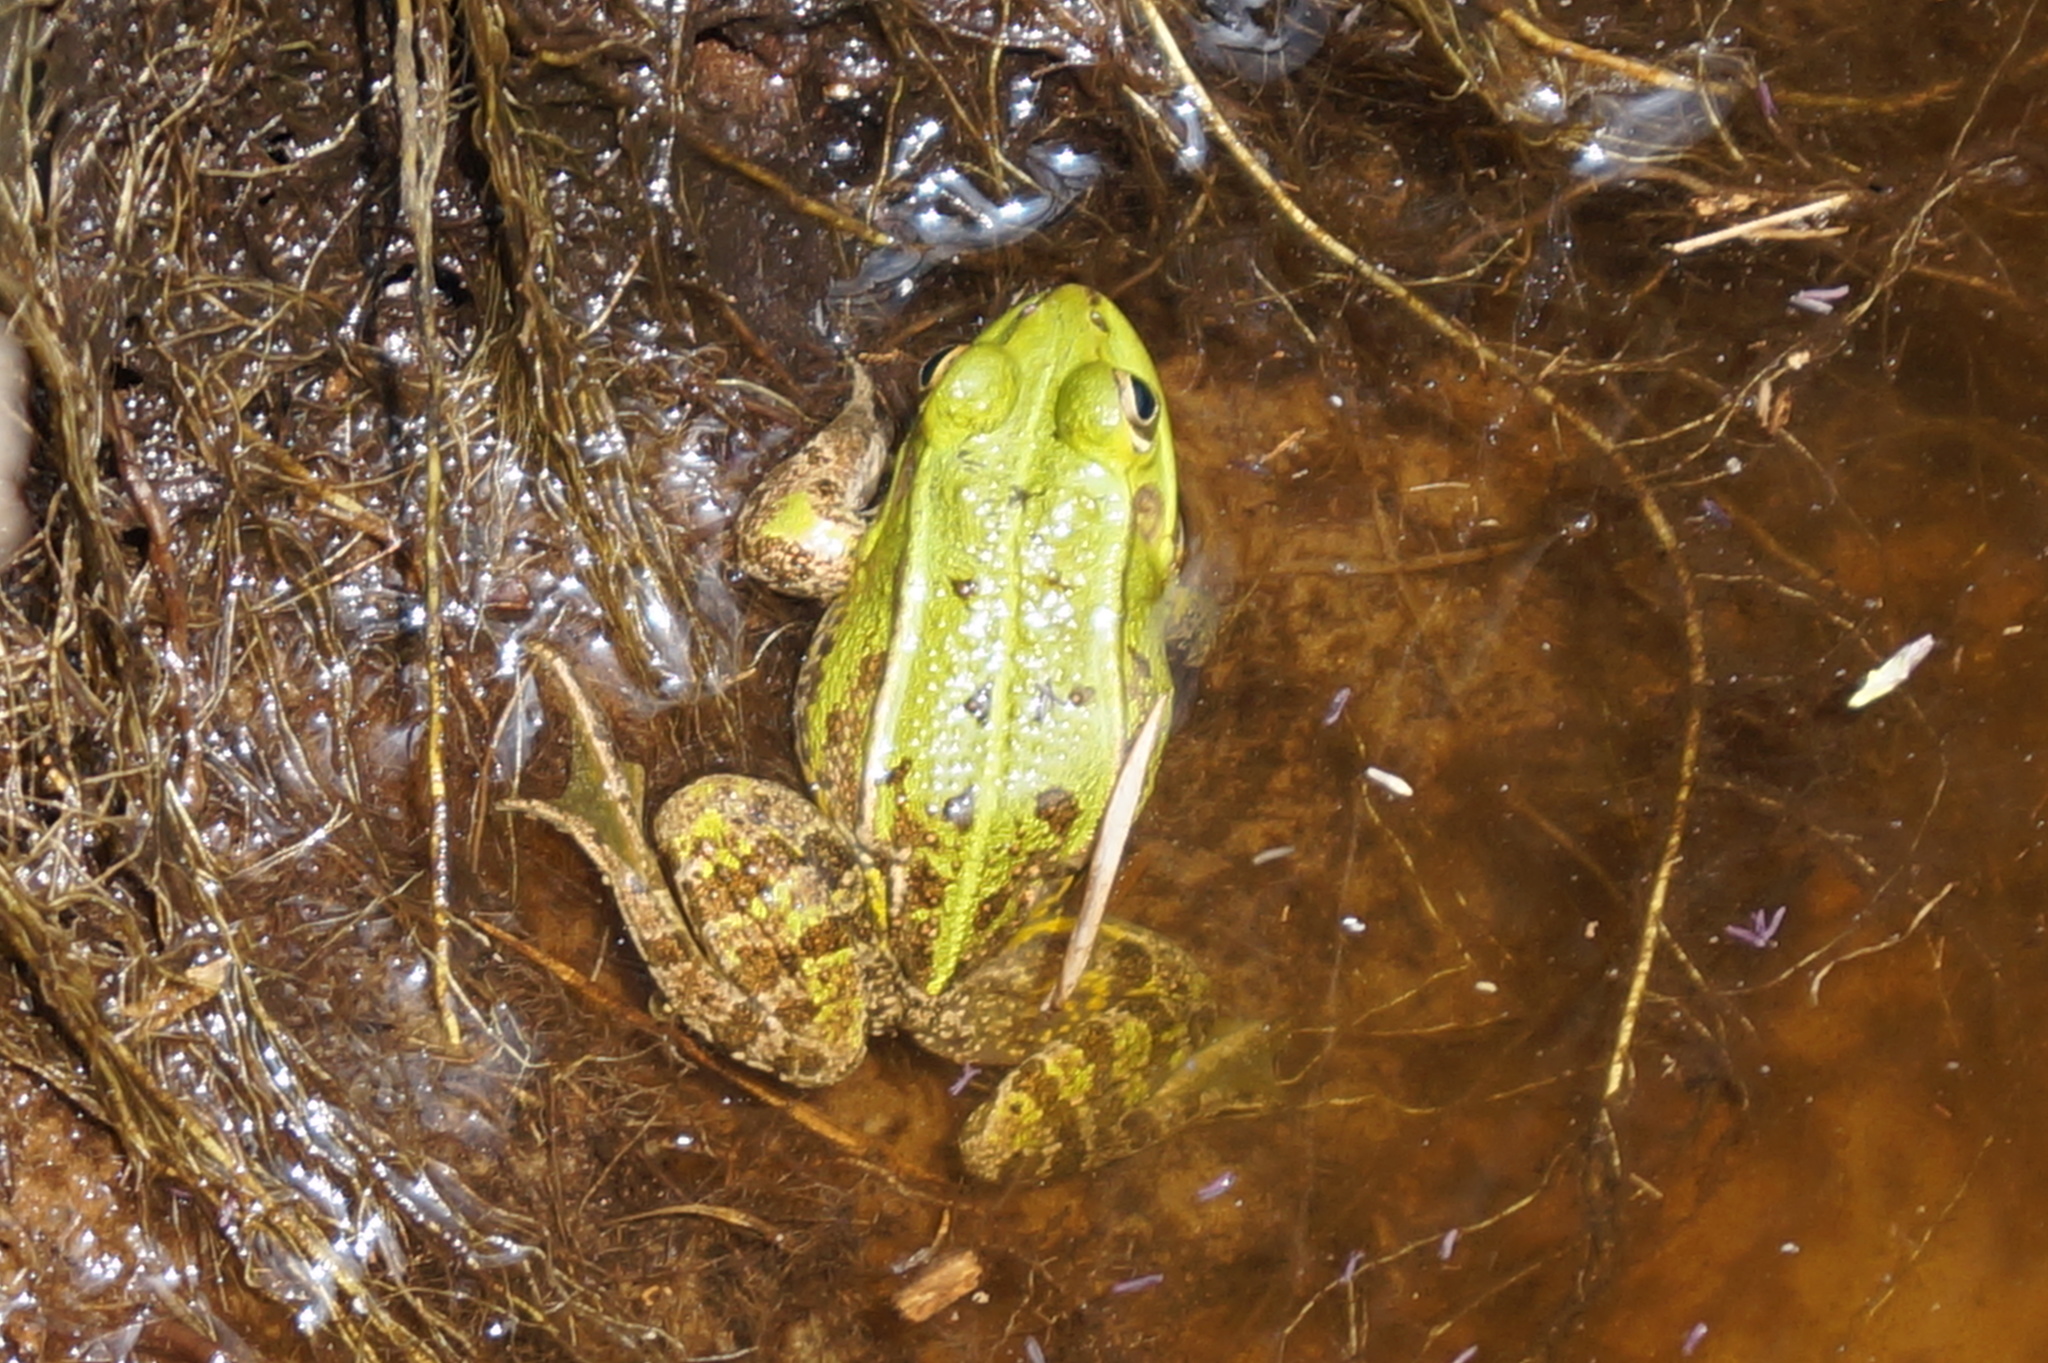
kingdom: Animalia
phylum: Chordata
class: Amphibia
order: Anura
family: Ranidae
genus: Pelophylax
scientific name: Pelophylax
